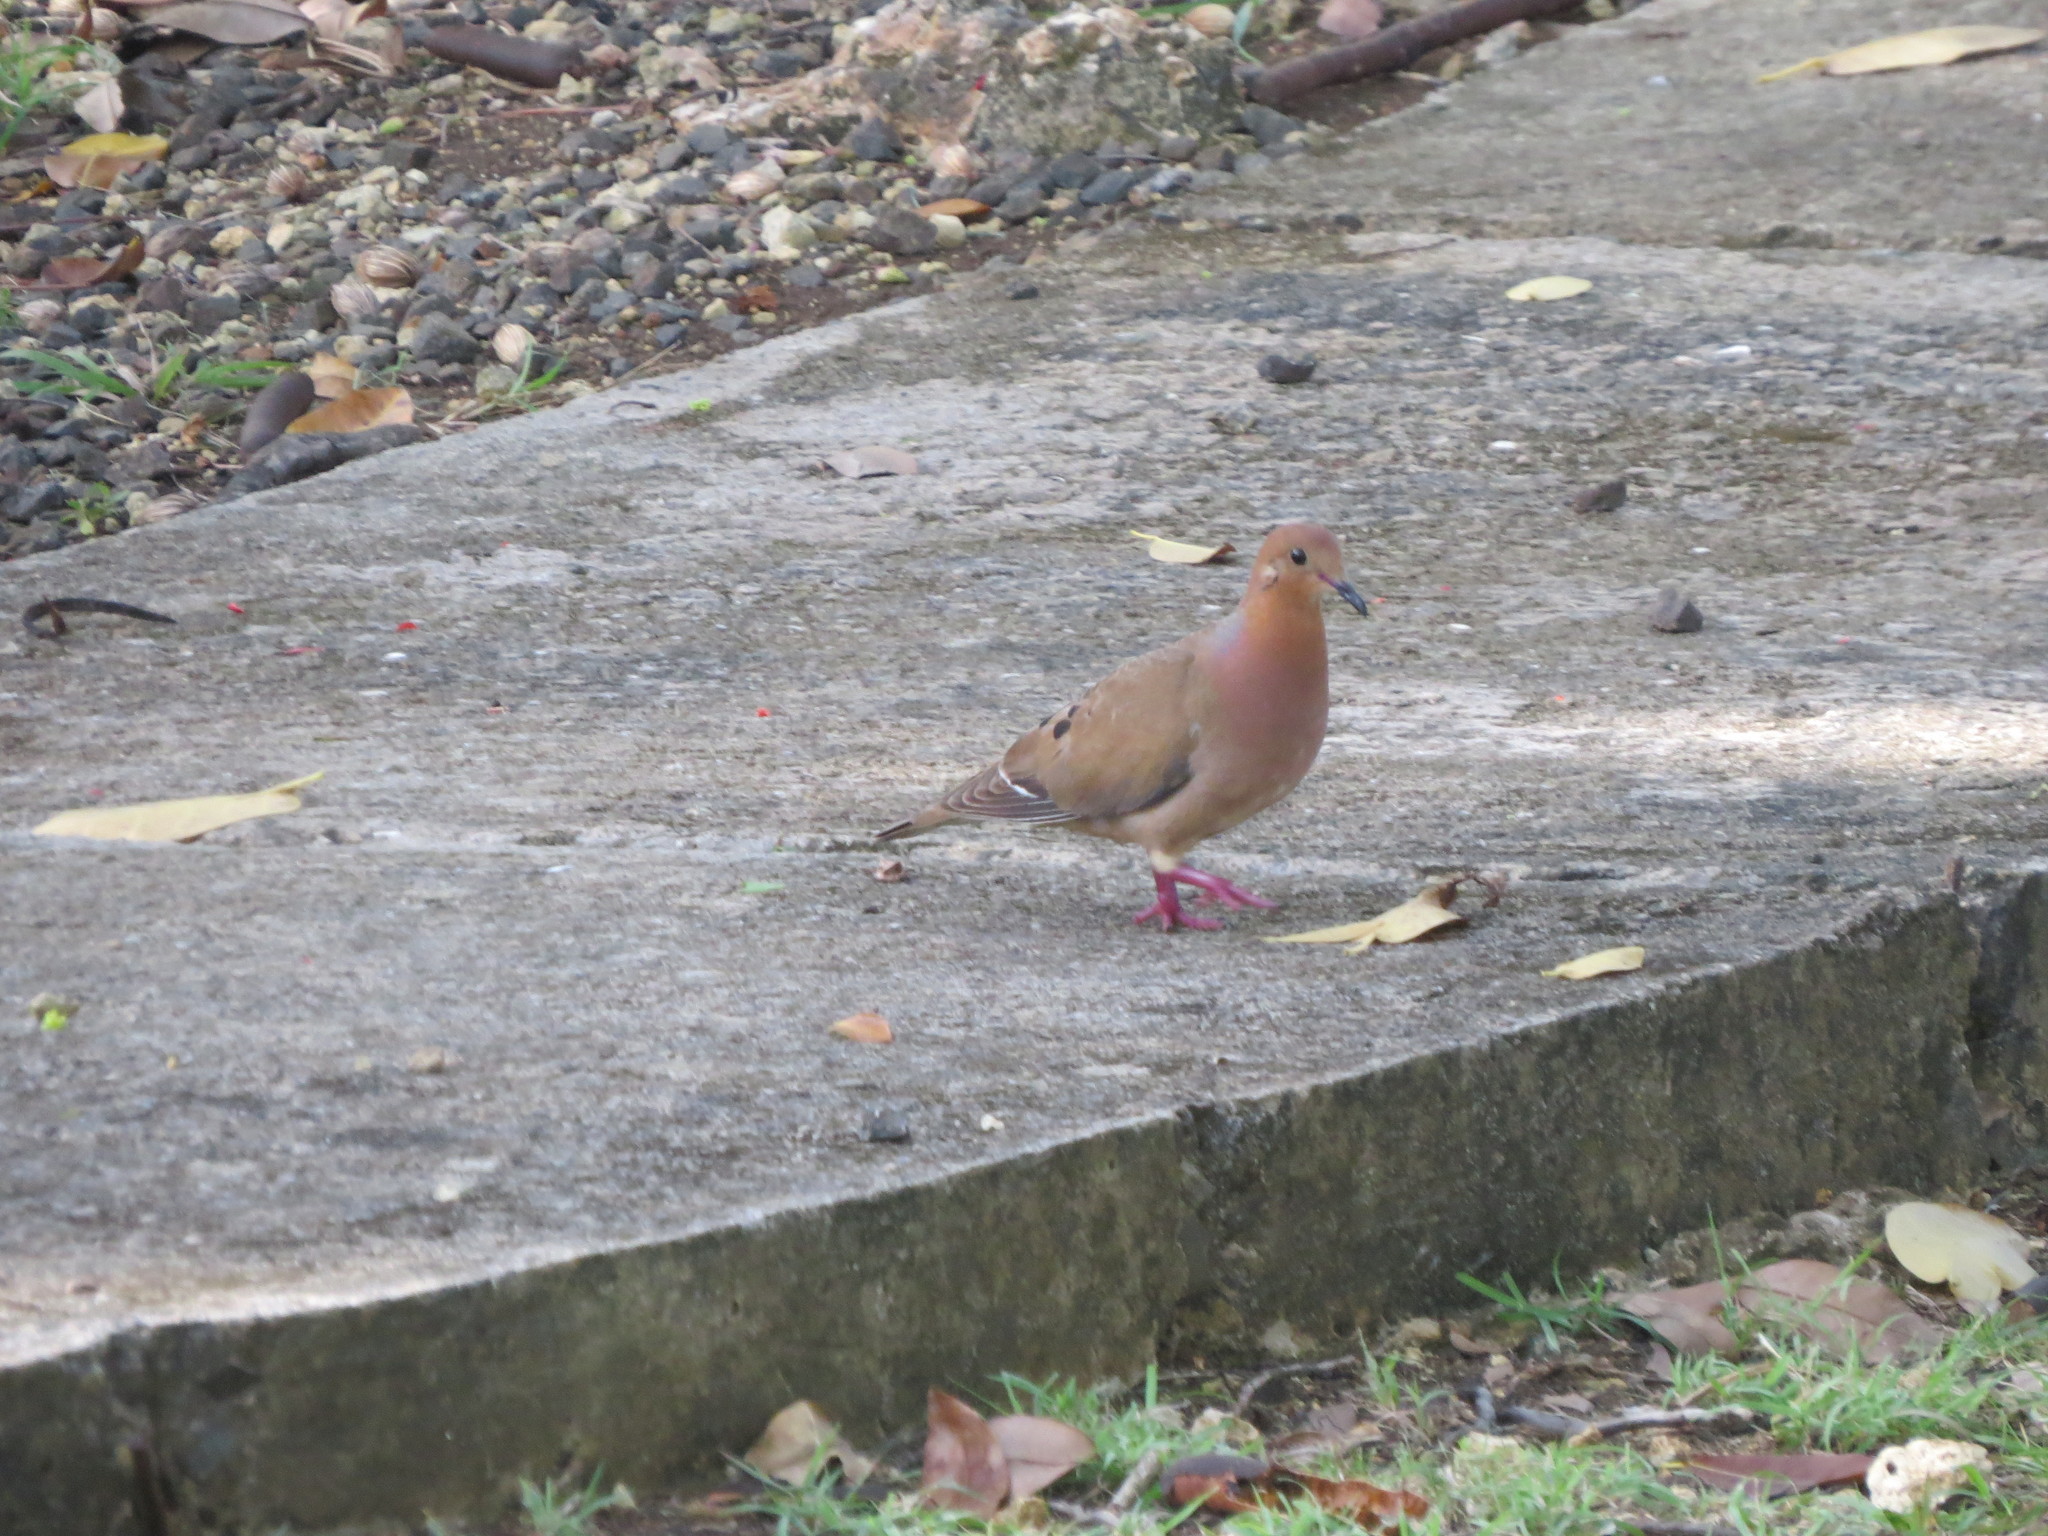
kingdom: Animalia
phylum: Chordata
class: Aves
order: Columbiformes
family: Columbidae
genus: Zenaida
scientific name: Zenaida aurita
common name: Zenaida dove
